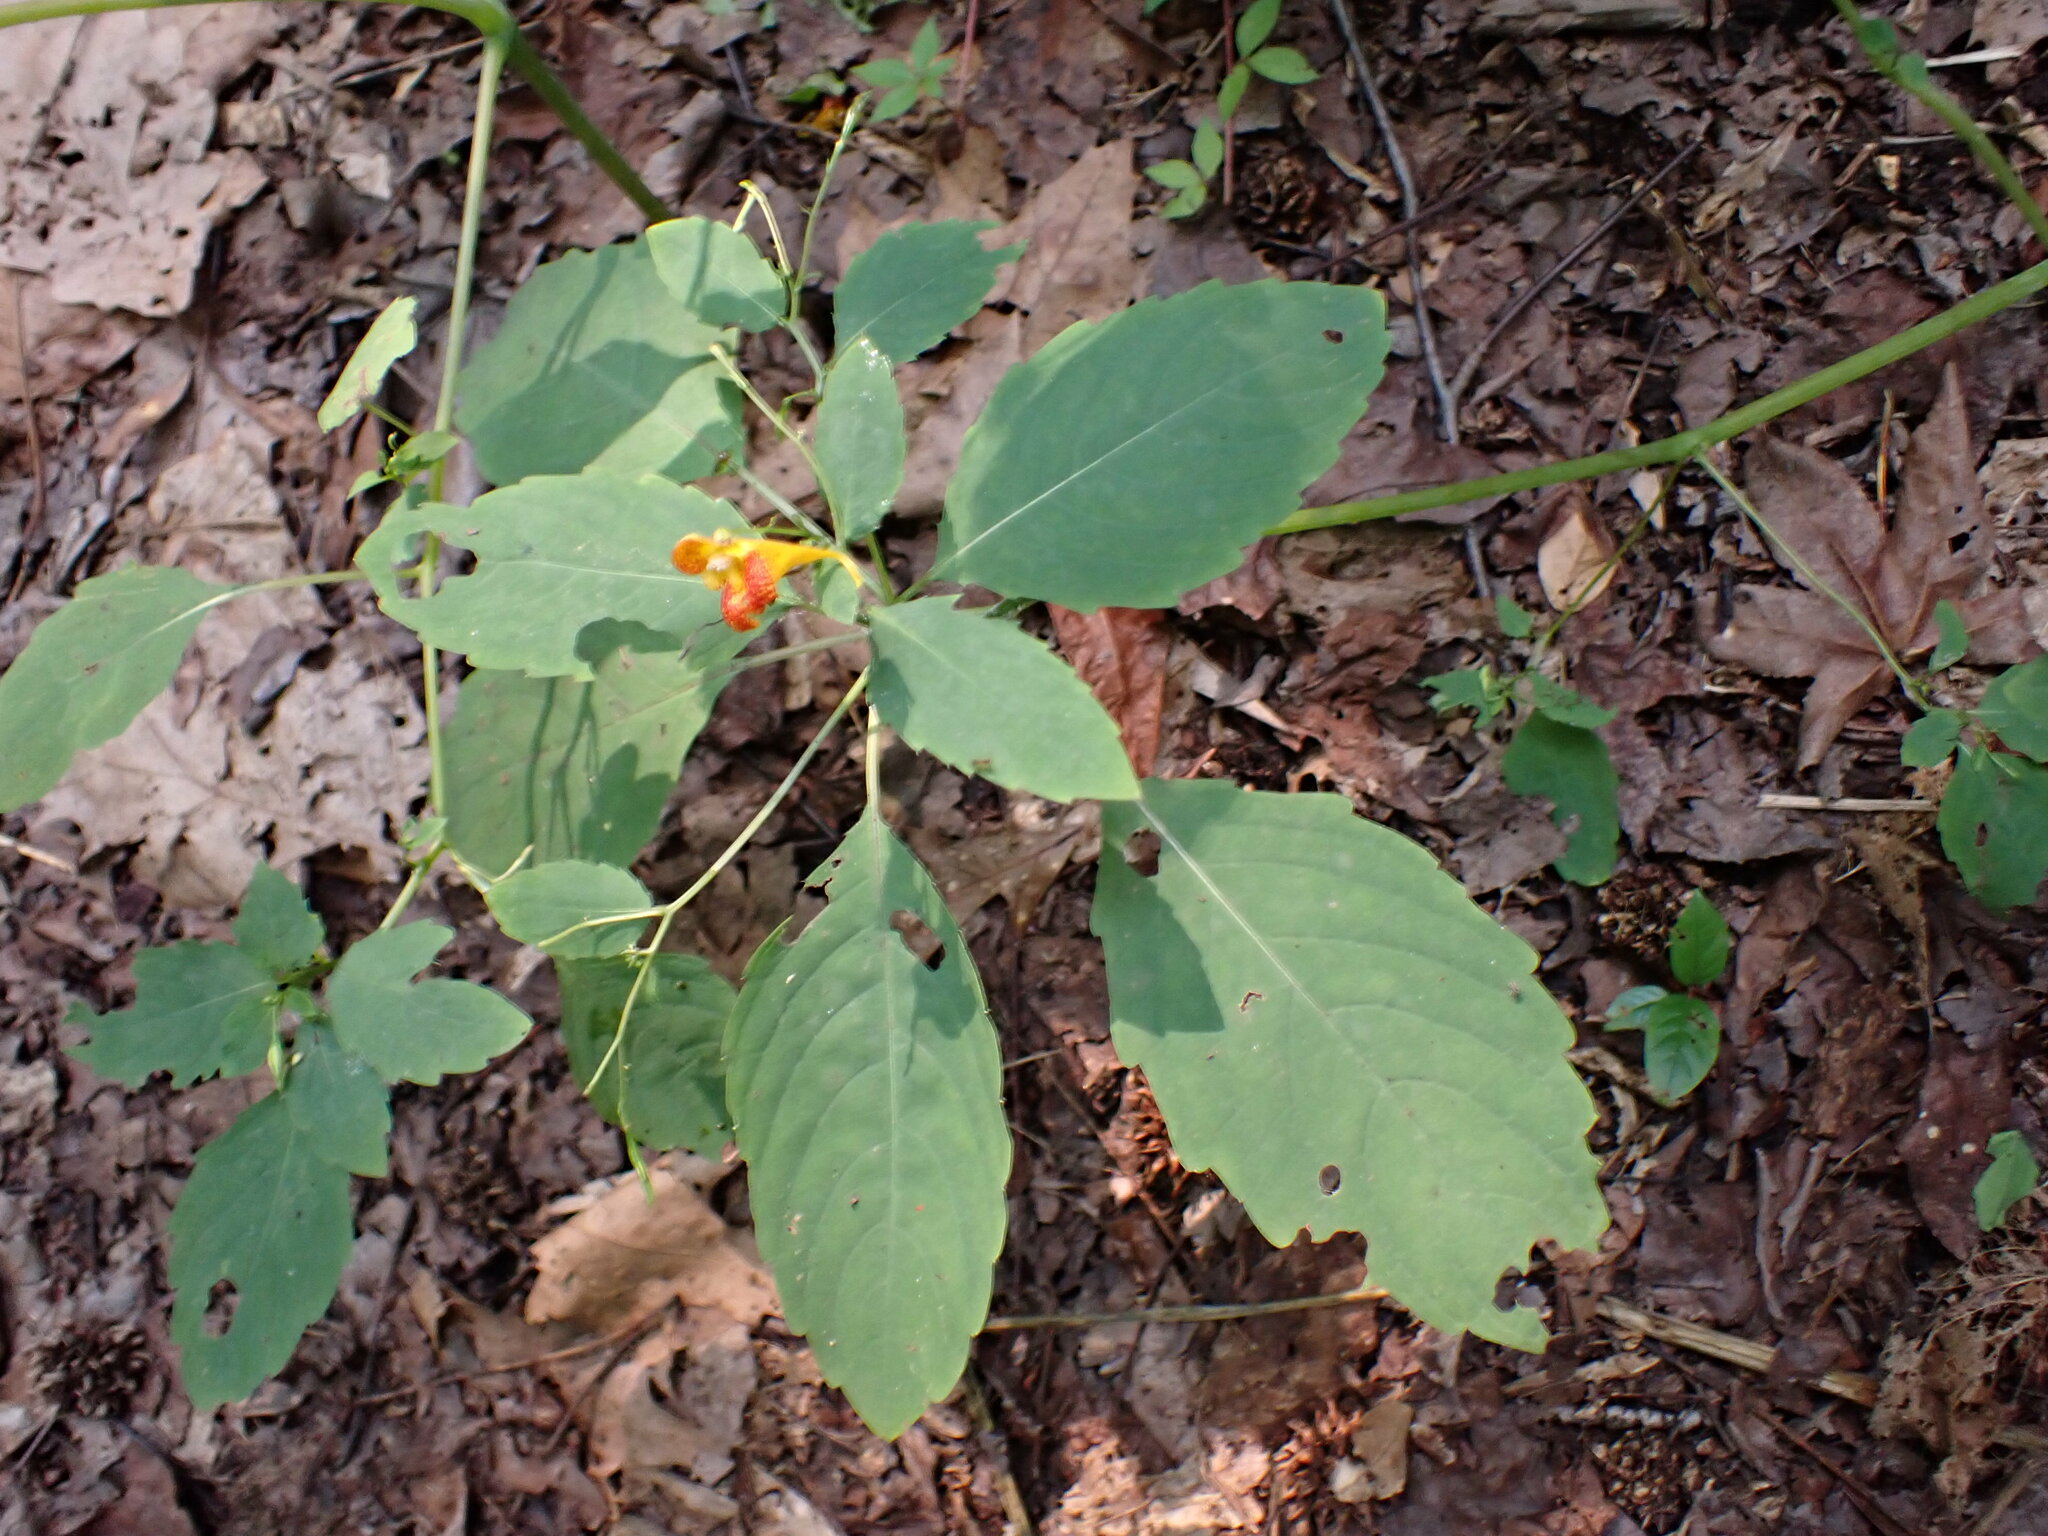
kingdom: Plantae
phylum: Tracheophyta
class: Magnoliopsida
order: Ericales
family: Balsaminaceae
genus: Impatiens
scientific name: Impatiens pallida
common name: Pale snapweed
